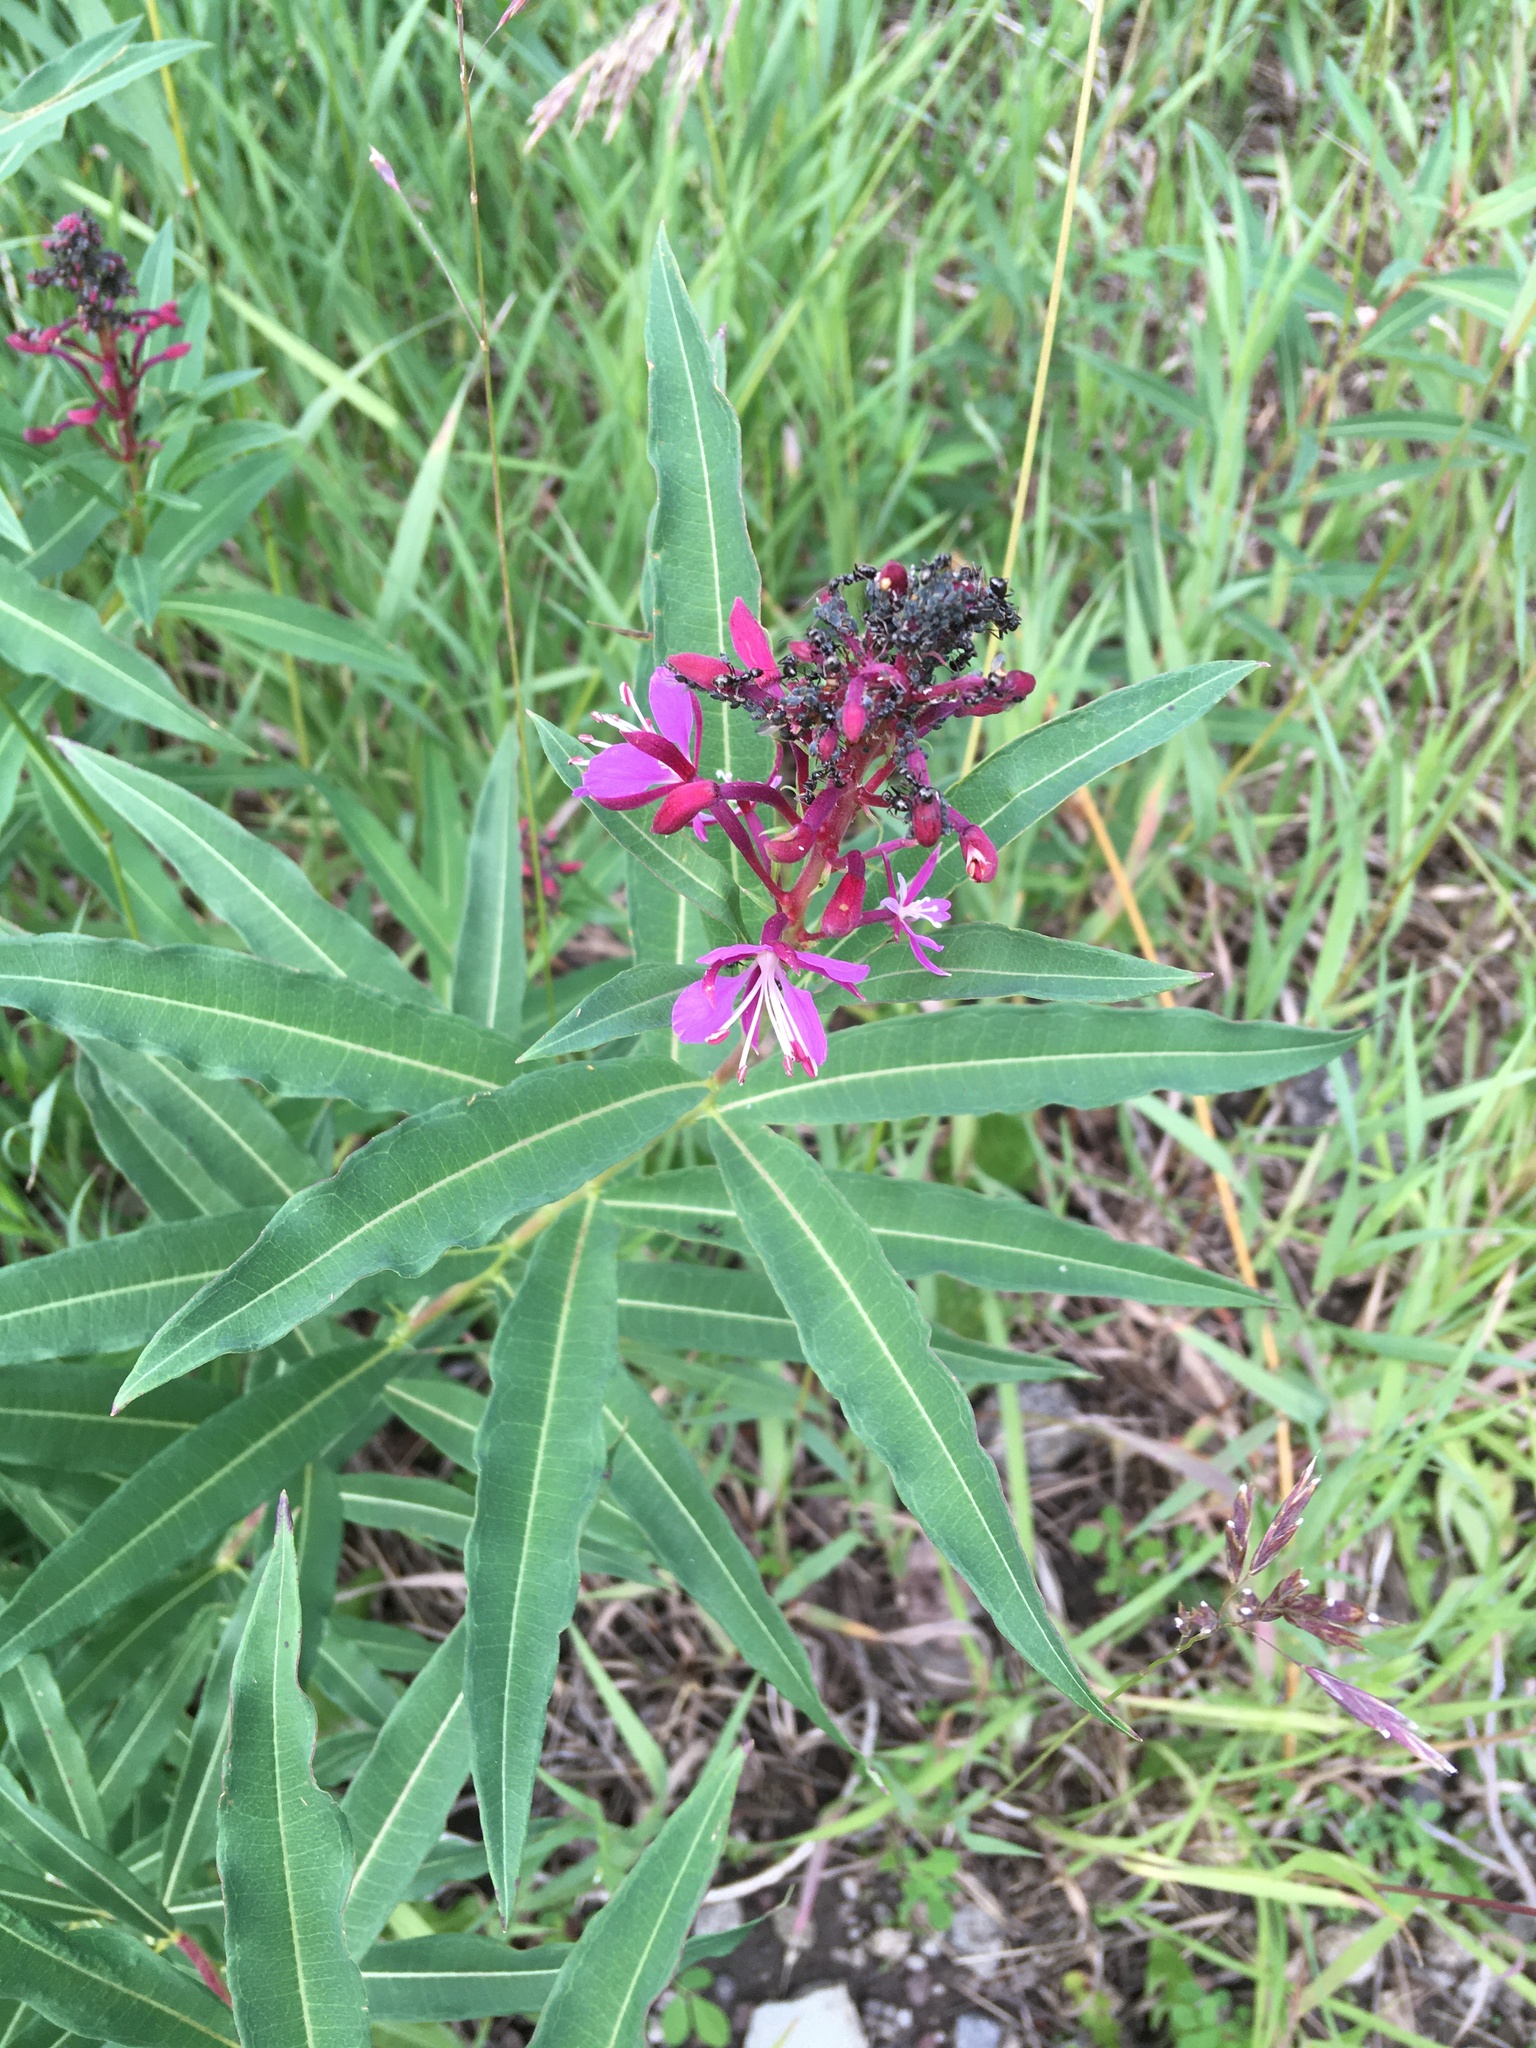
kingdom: Plantae
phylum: Tracheophyta
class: Magnoliopsida
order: Myrtales
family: Onagraceae
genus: Chamaenerion
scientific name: Chamaenerion angustifolium
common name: Fireweed
